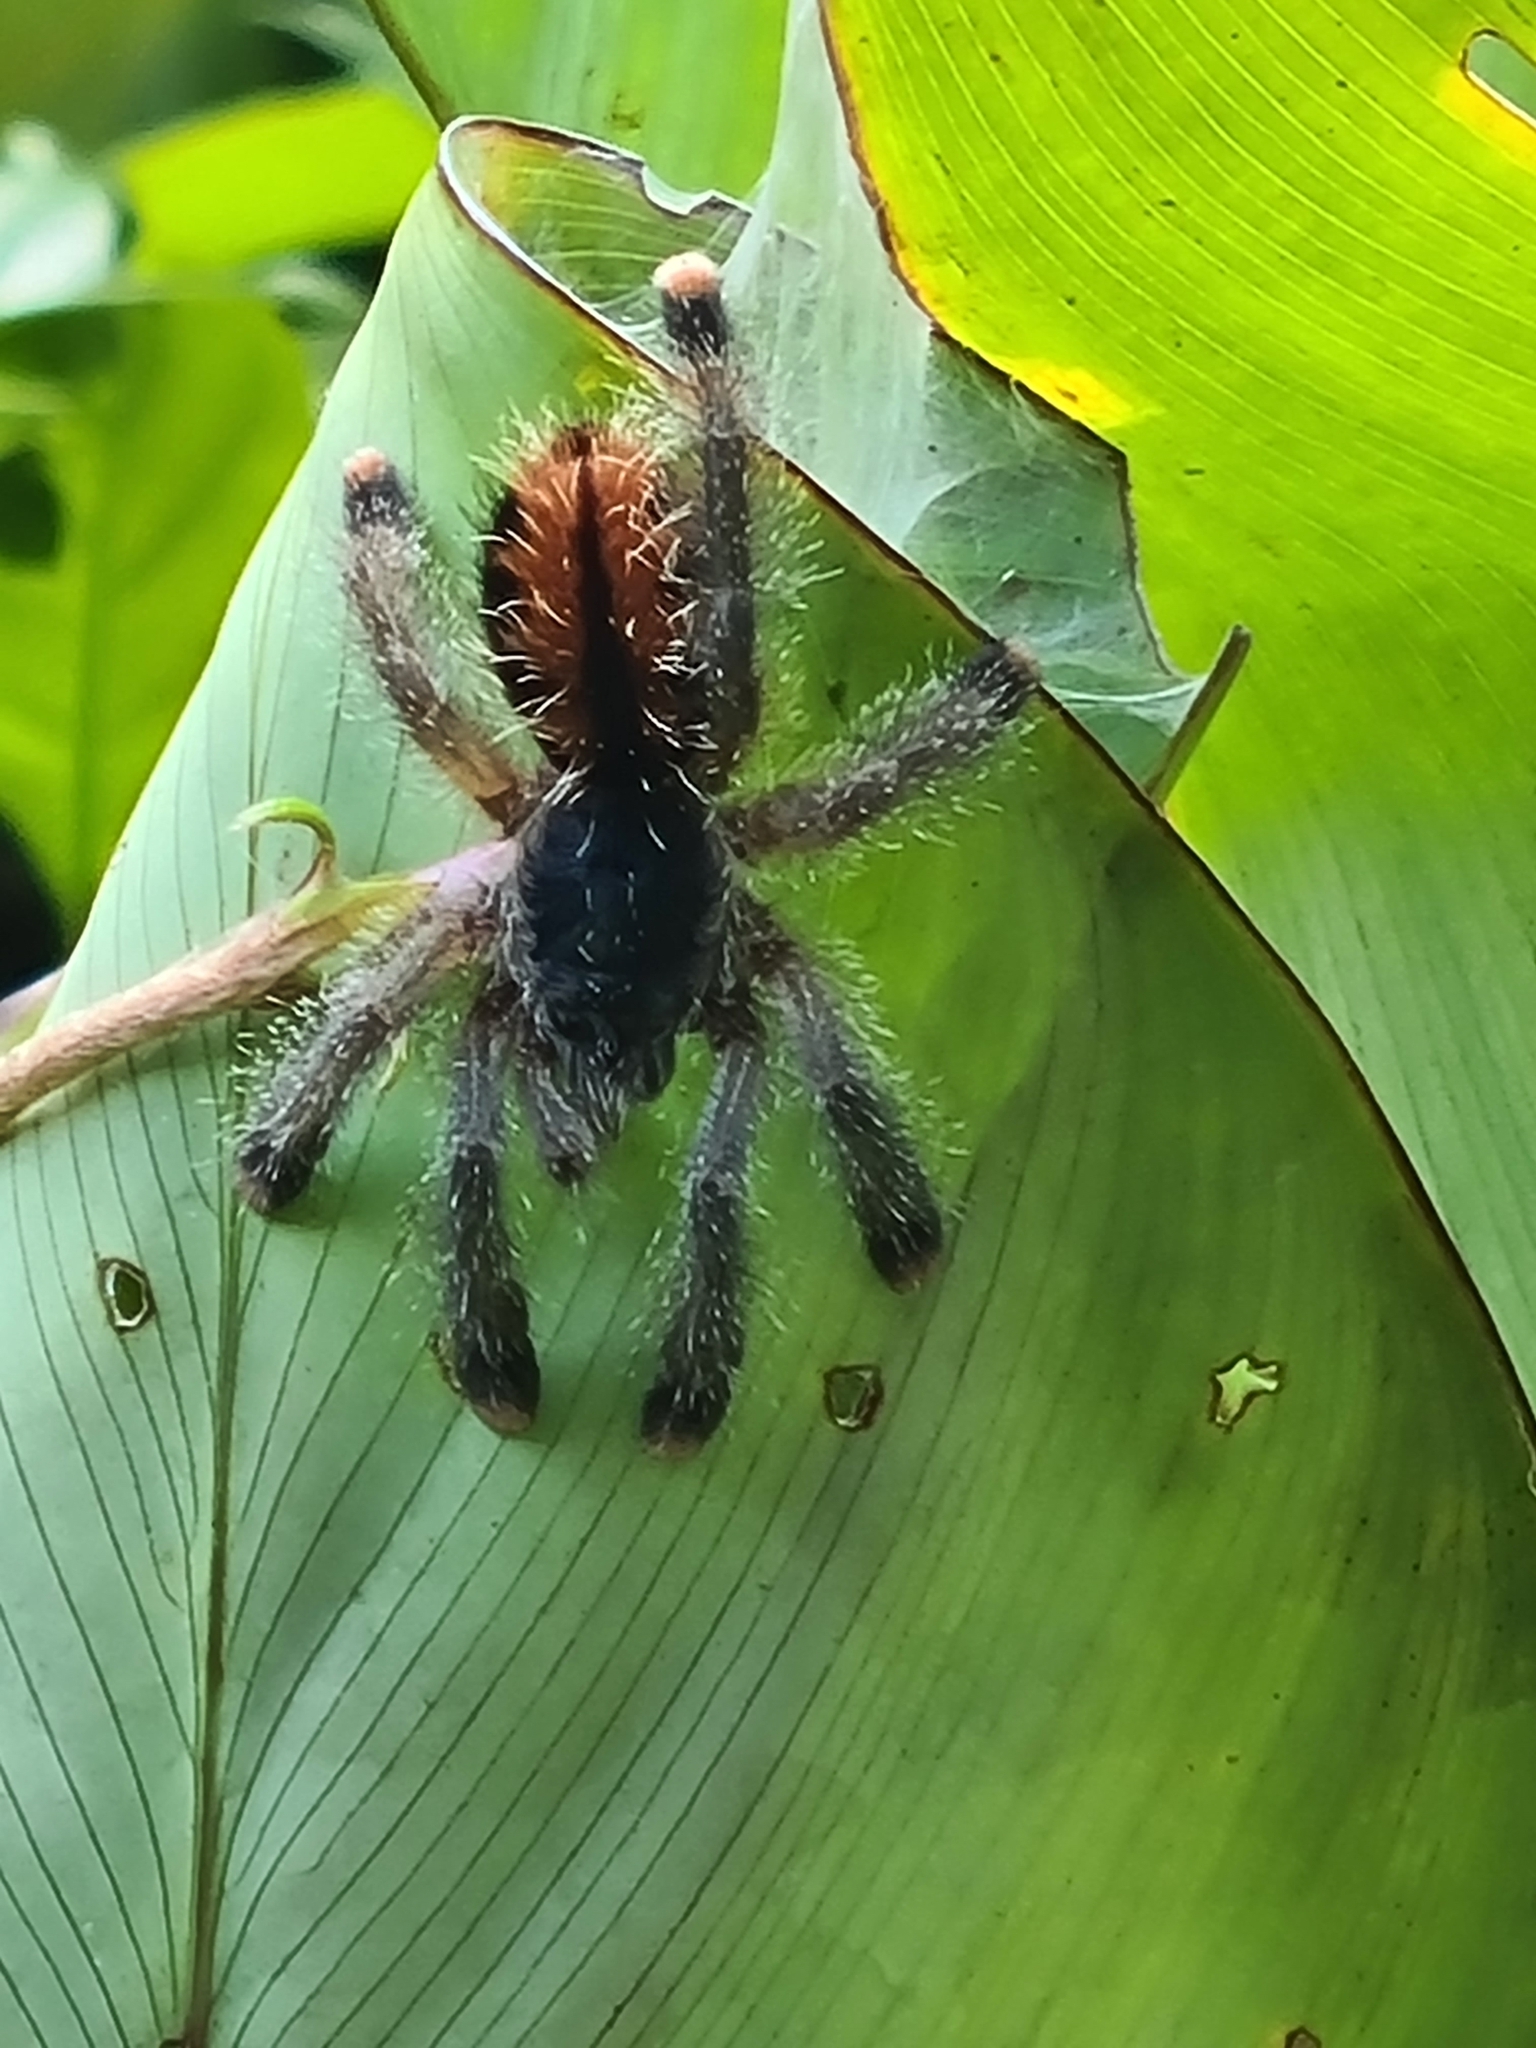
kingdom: Animalia
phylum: Arthropoda
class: Arachnida
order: Araneae
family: Theraphosidae
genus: Avicularia
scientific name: Avicularia avicularia
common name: Tarantula spiders
